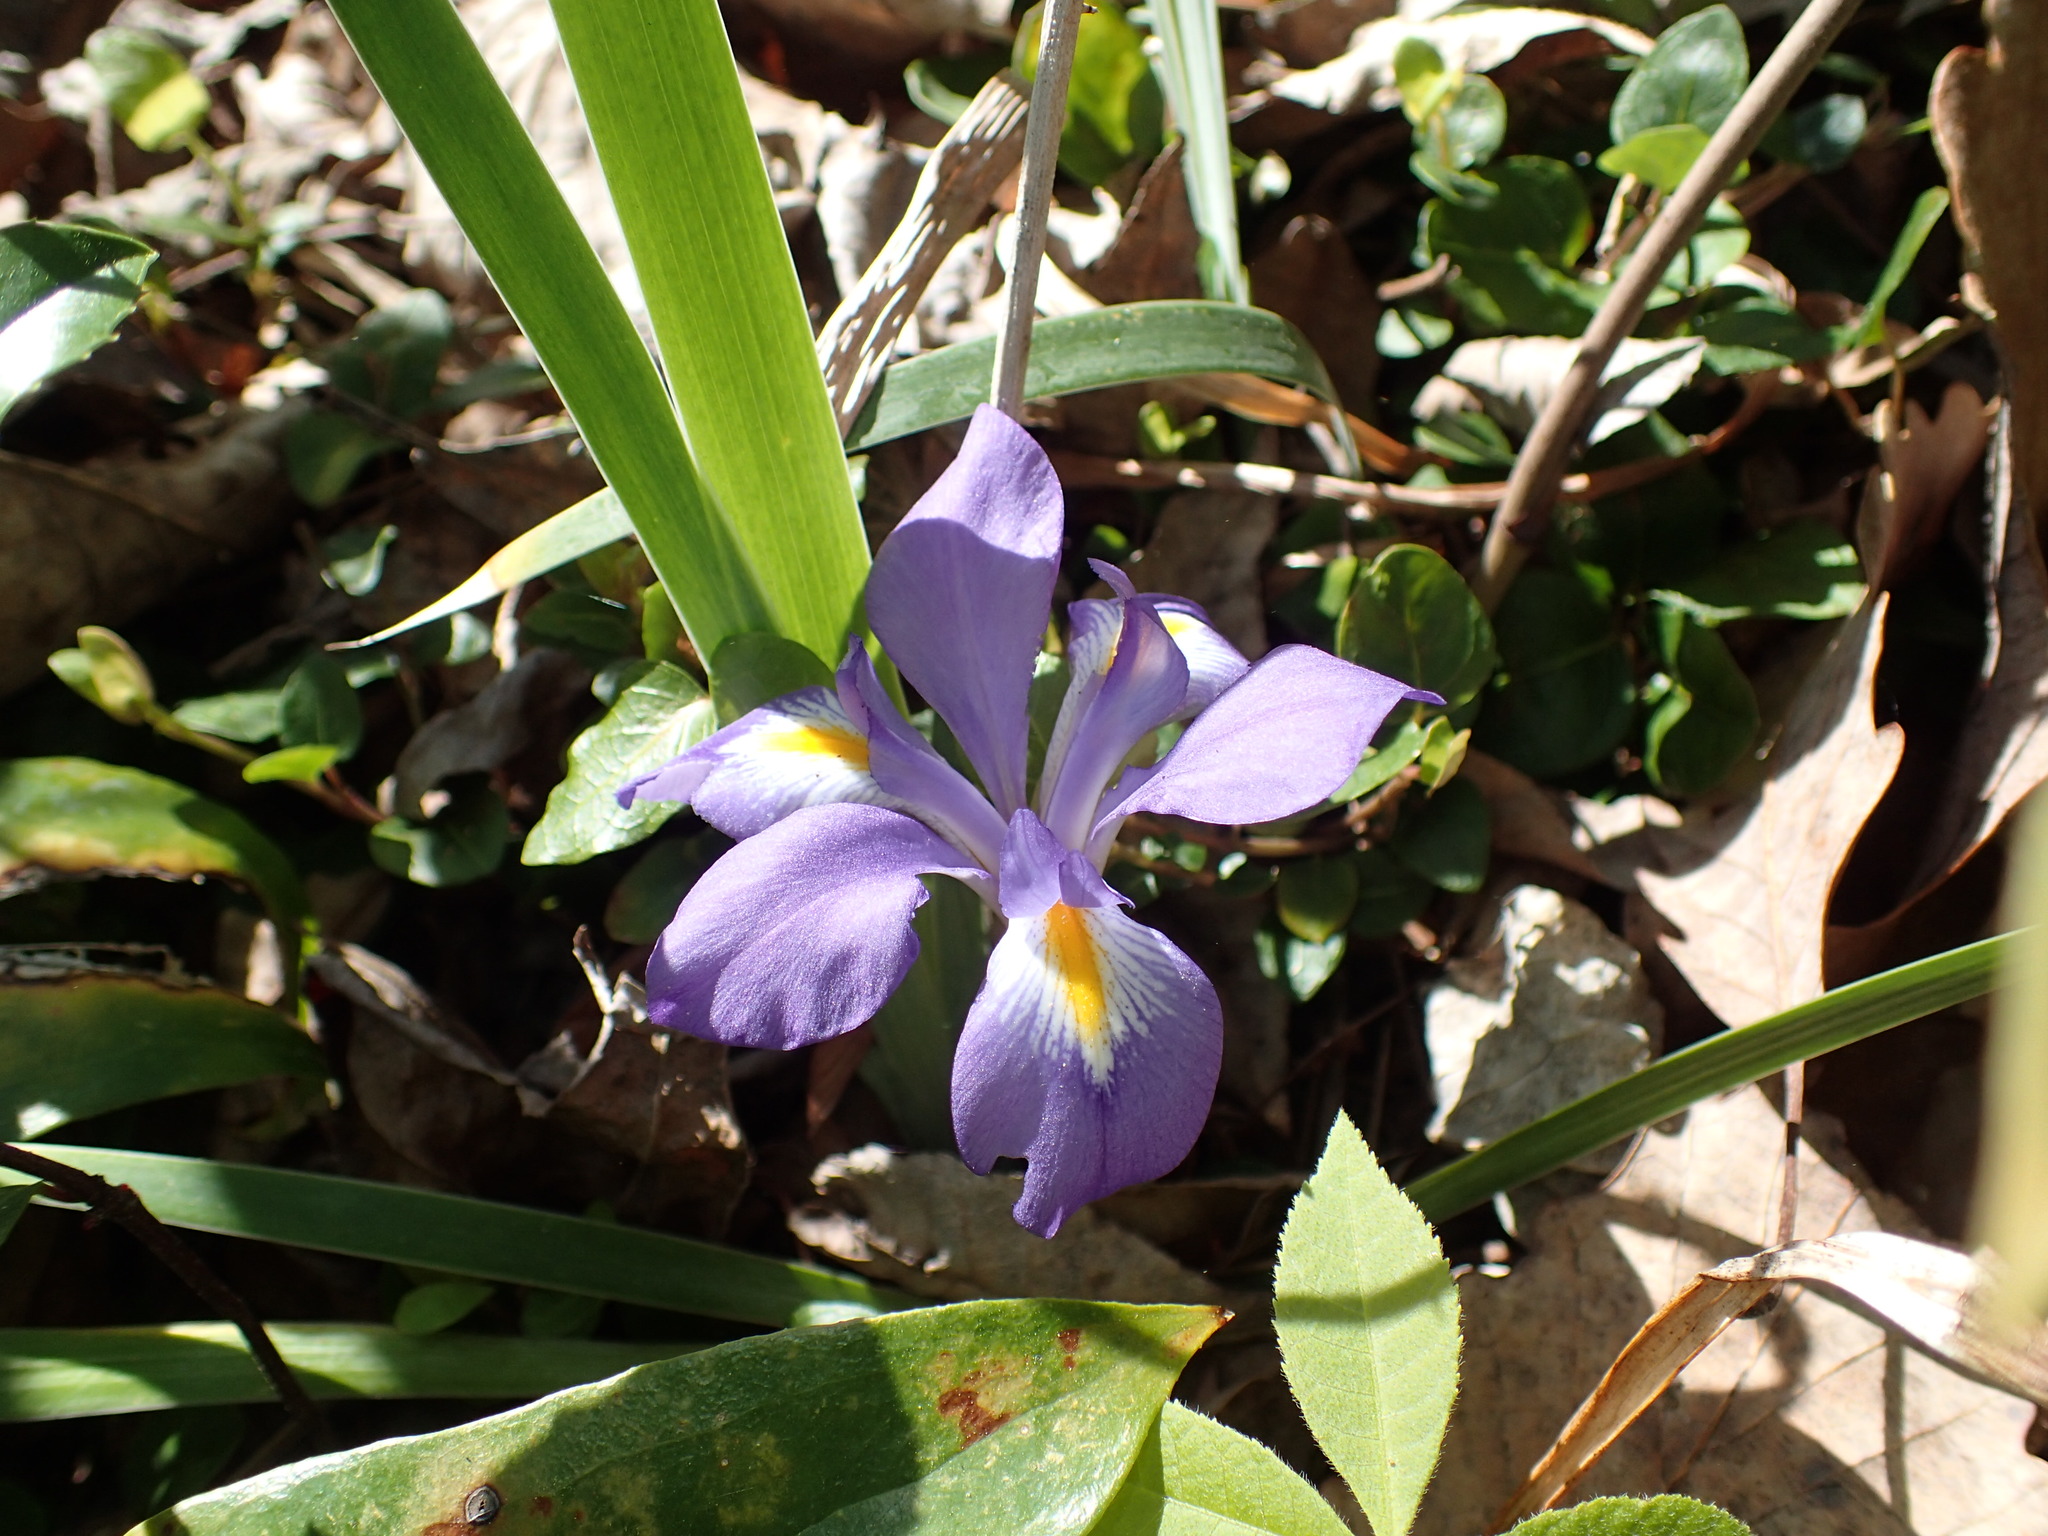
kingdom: Plantae
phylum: Tracheophyta
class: Liliopsida
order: Asparagales
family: Iridaceae
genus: Iris
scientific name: Iris verna
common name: Dwarf iris
